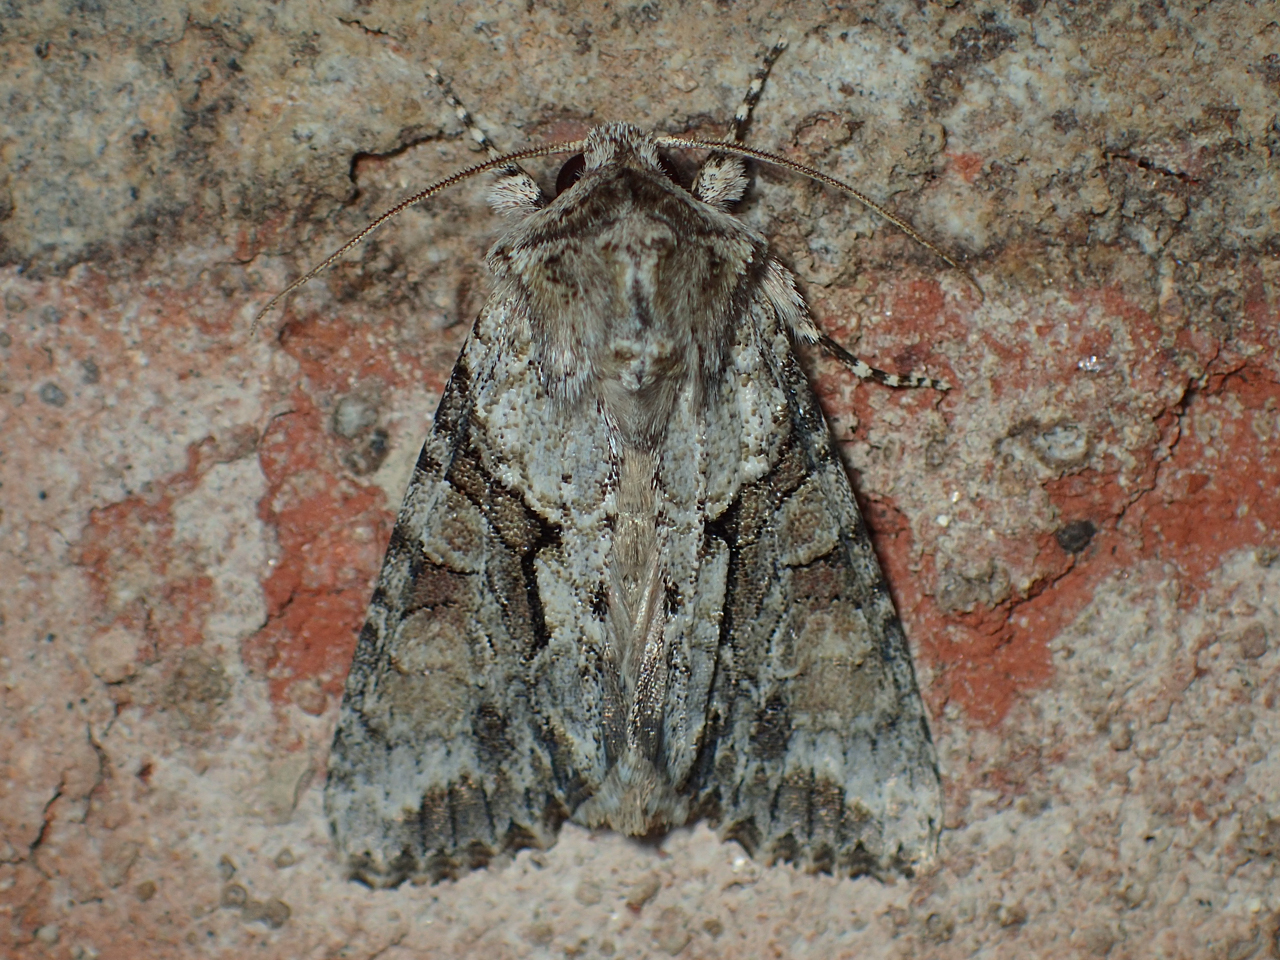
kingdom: Animalia
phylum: Arthropoda
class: Insecta
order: Lepidoptera
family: Noctuidae
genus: Achatia
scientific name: Achatia distincta
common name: Distinct quaker
